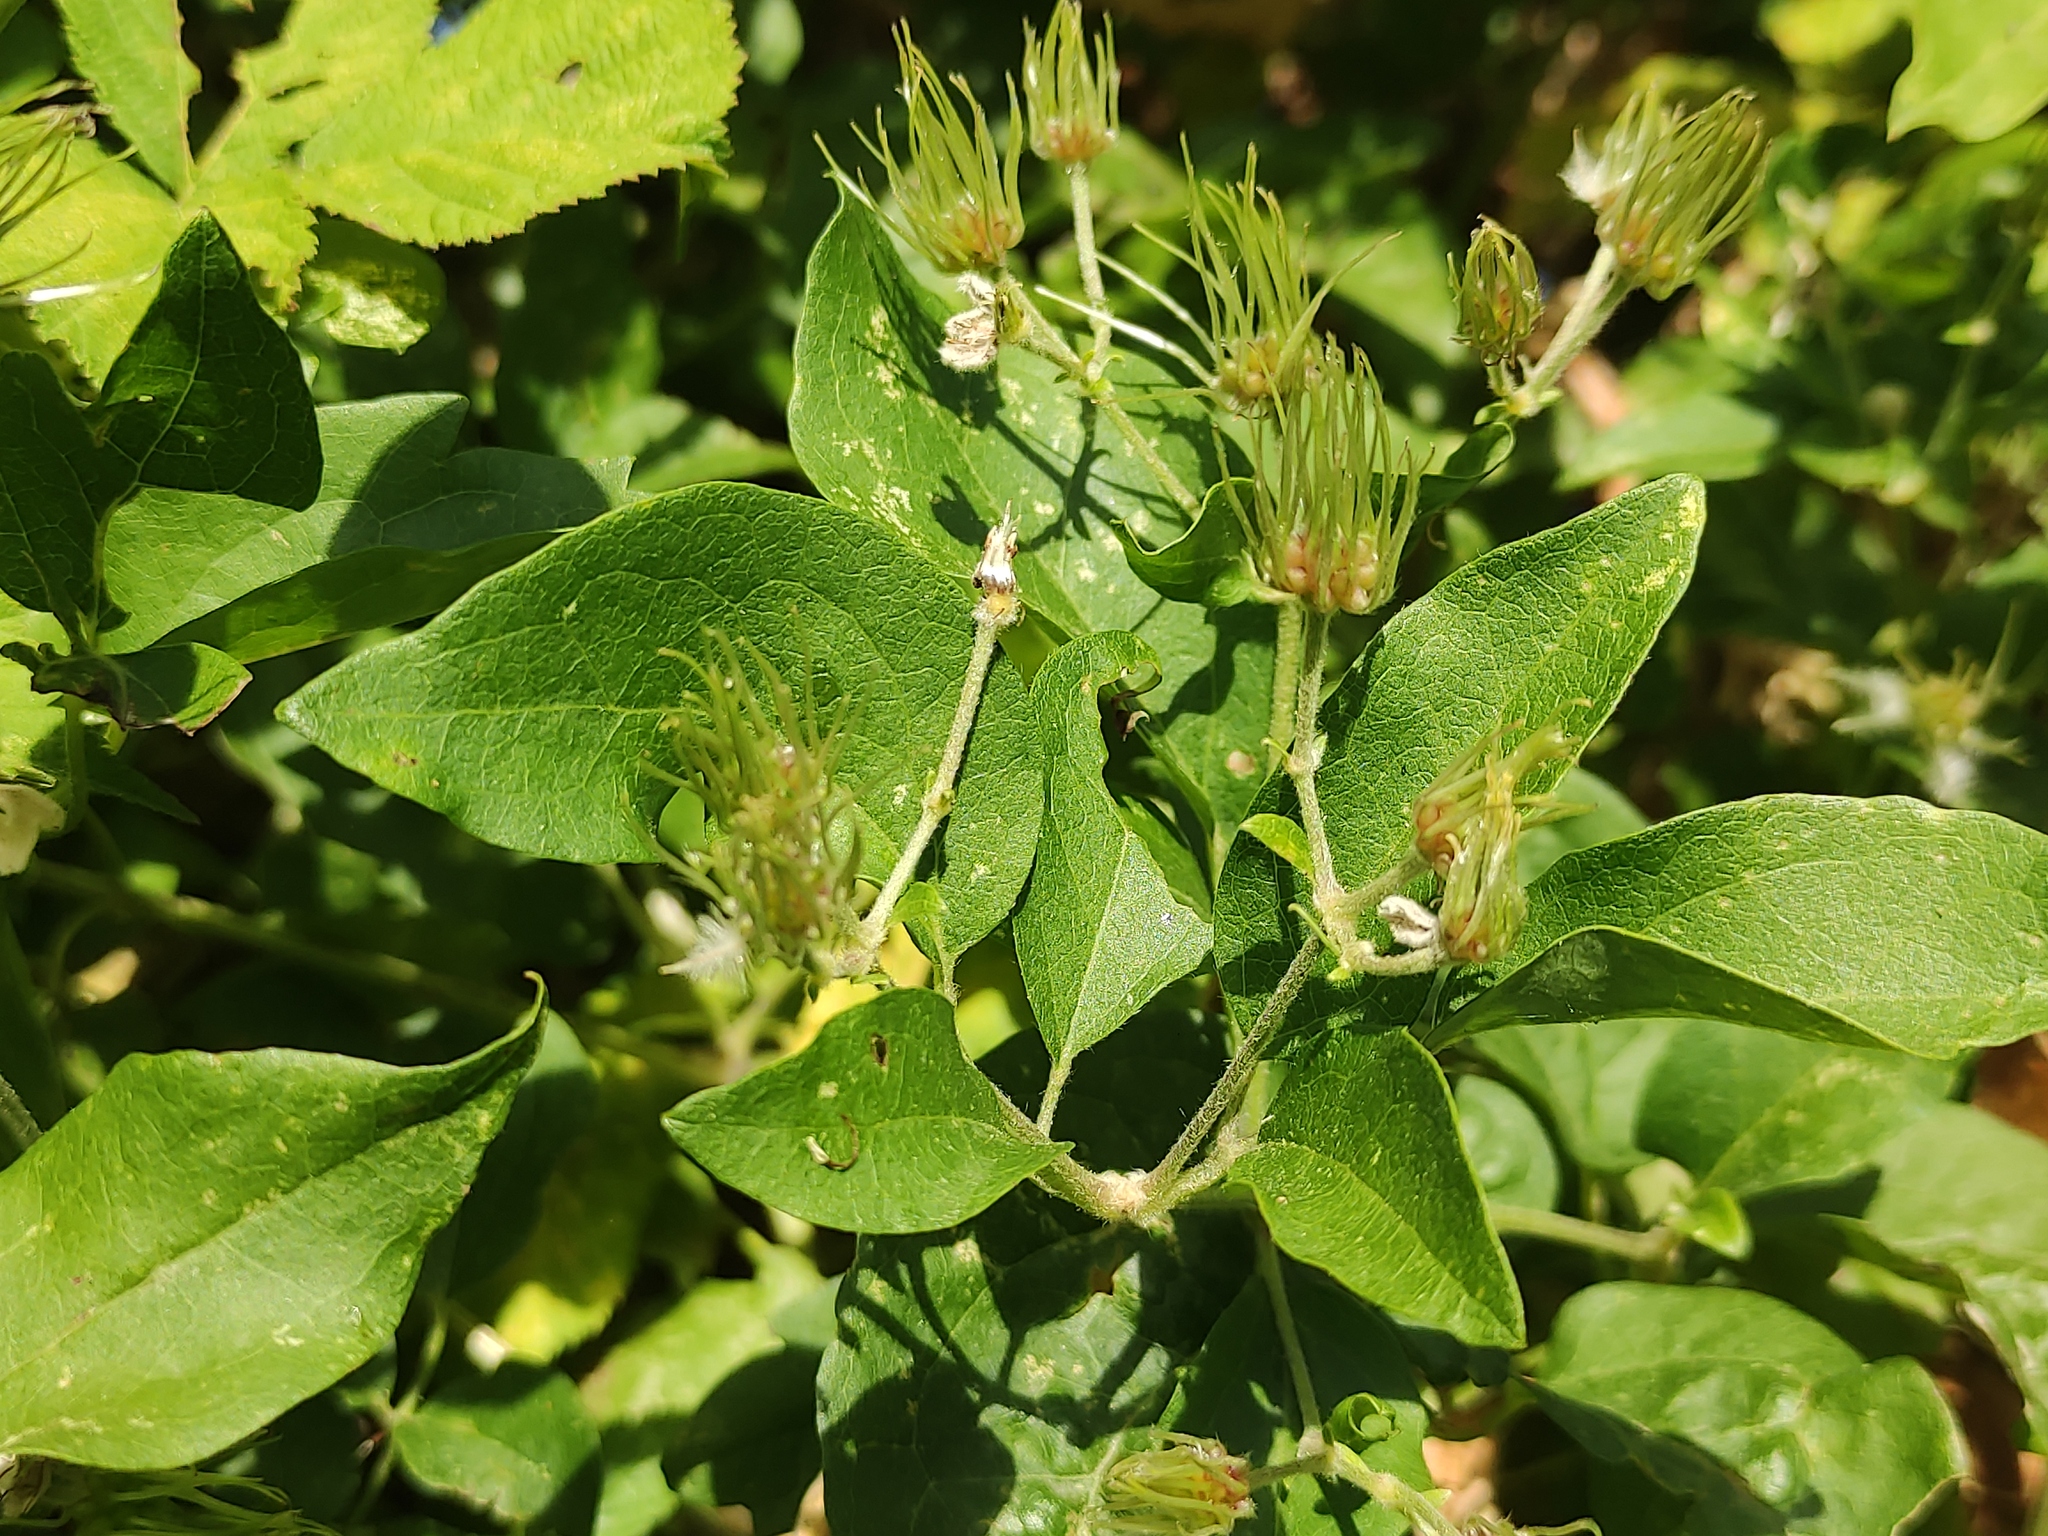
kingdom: Plantae
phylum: Tracheophyta
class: Magnoliopsida
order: Ranunculales
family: Ranunculaceae
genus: Clematis
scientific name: Clematis vitalba
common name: Evergreen clematis
